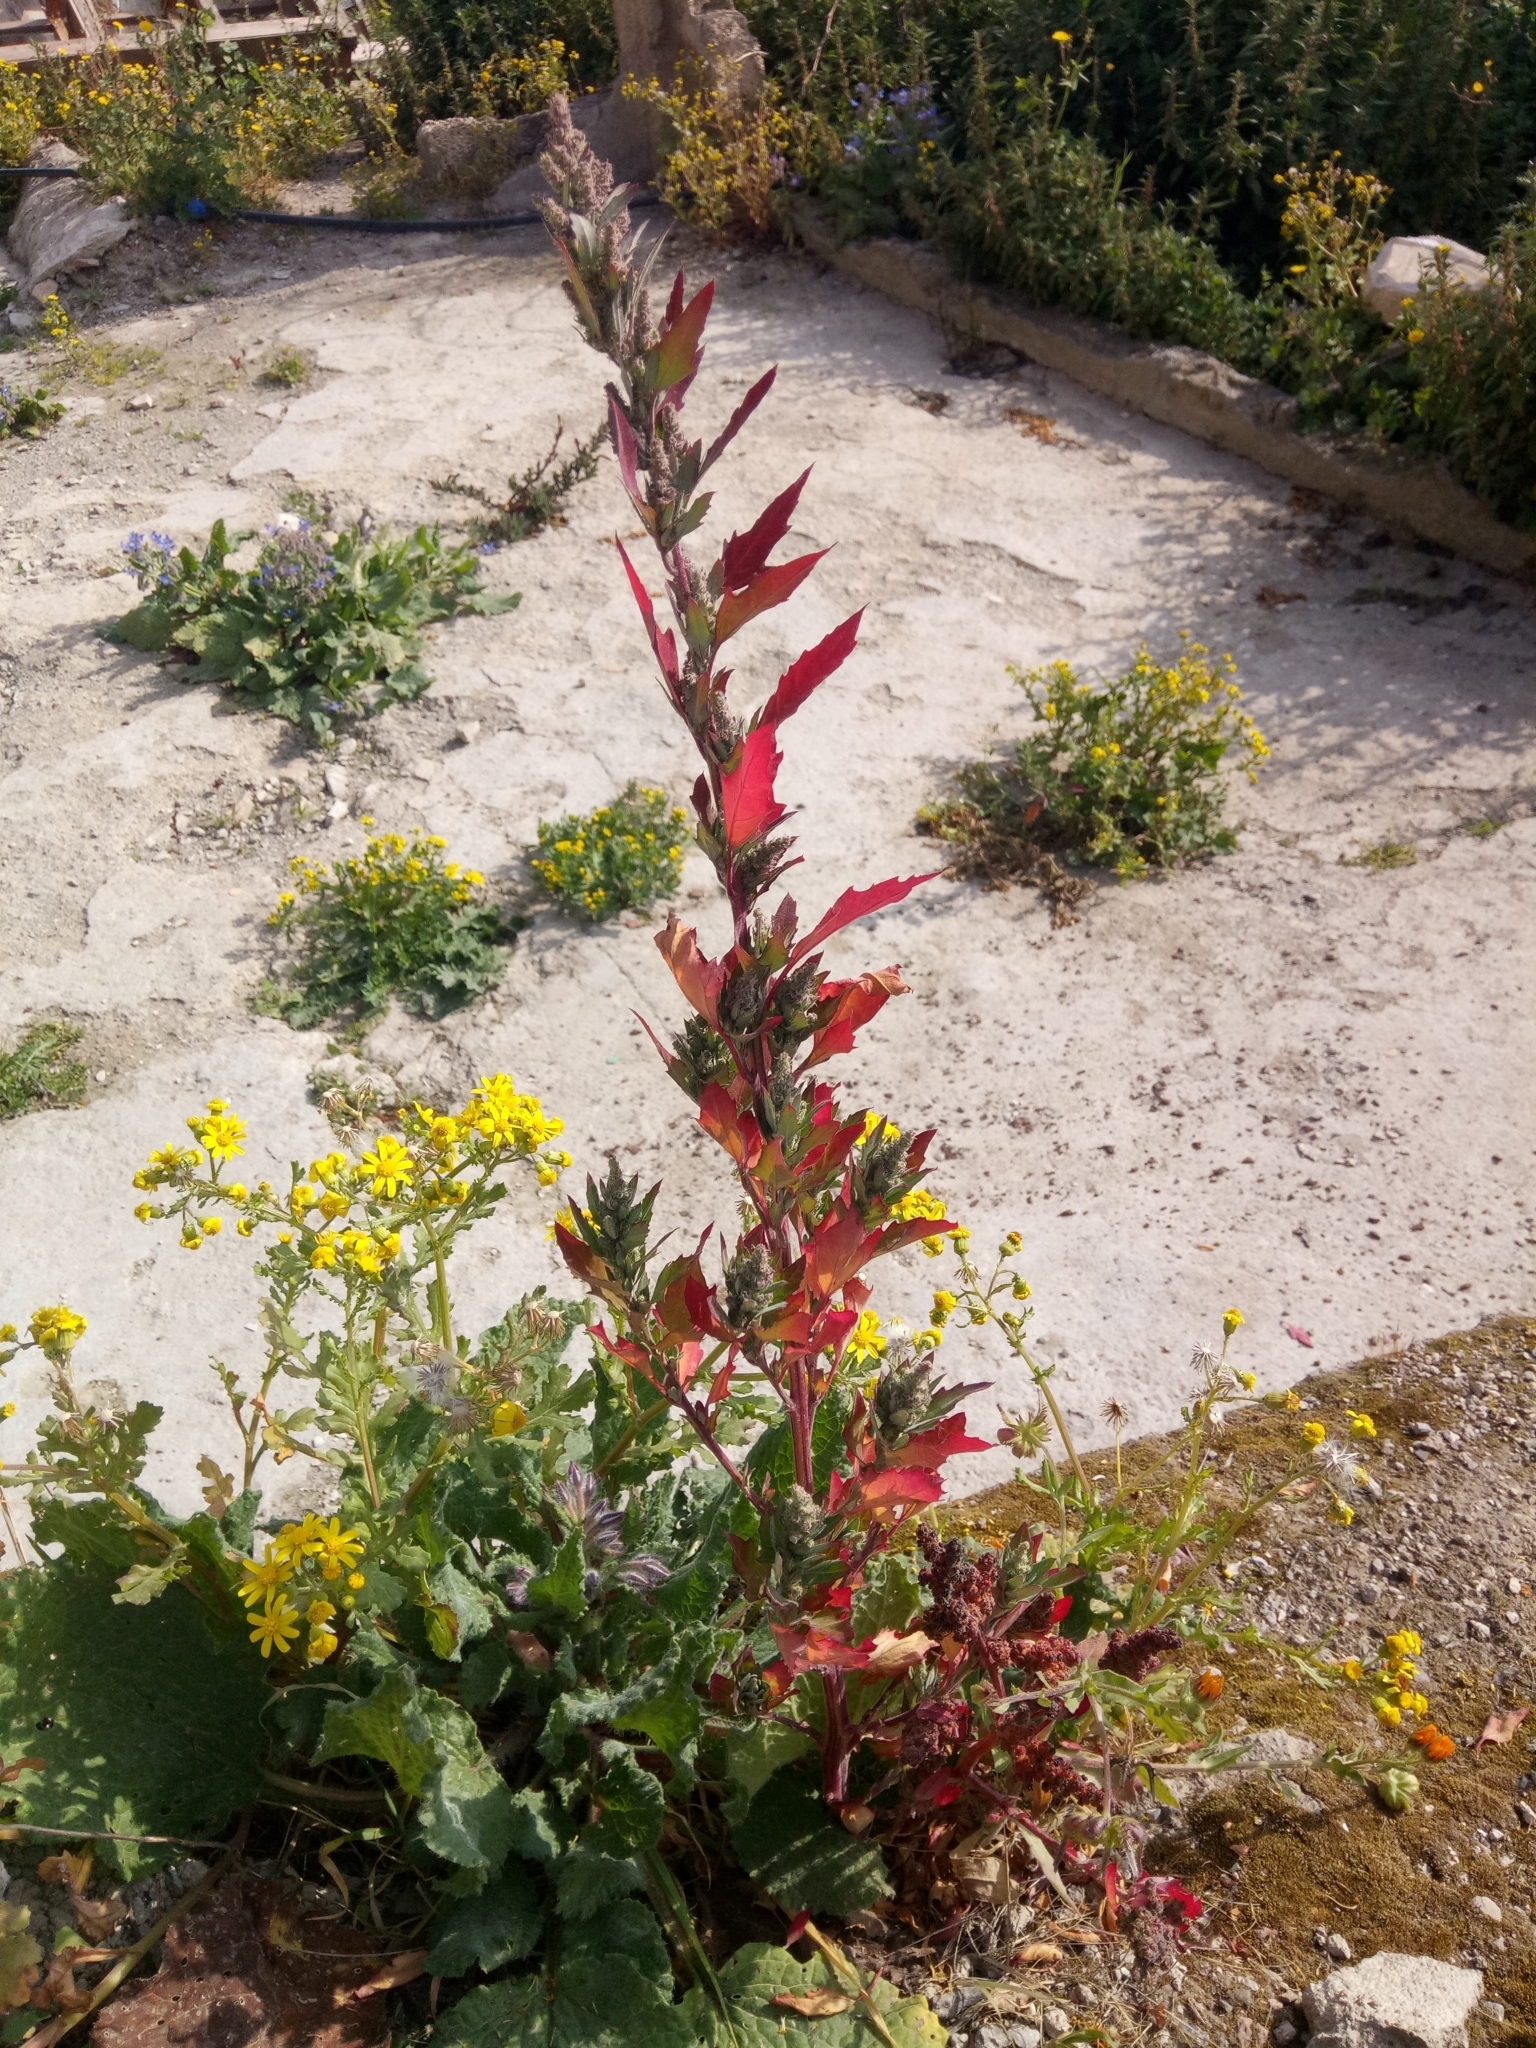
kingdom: Plantae
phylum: Tracheophyta
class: Magnoliopsida
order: Caryophyllales
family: Amaranthaceae
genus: Chenopodium
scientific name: Chenopodium album
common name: Fat-hen
